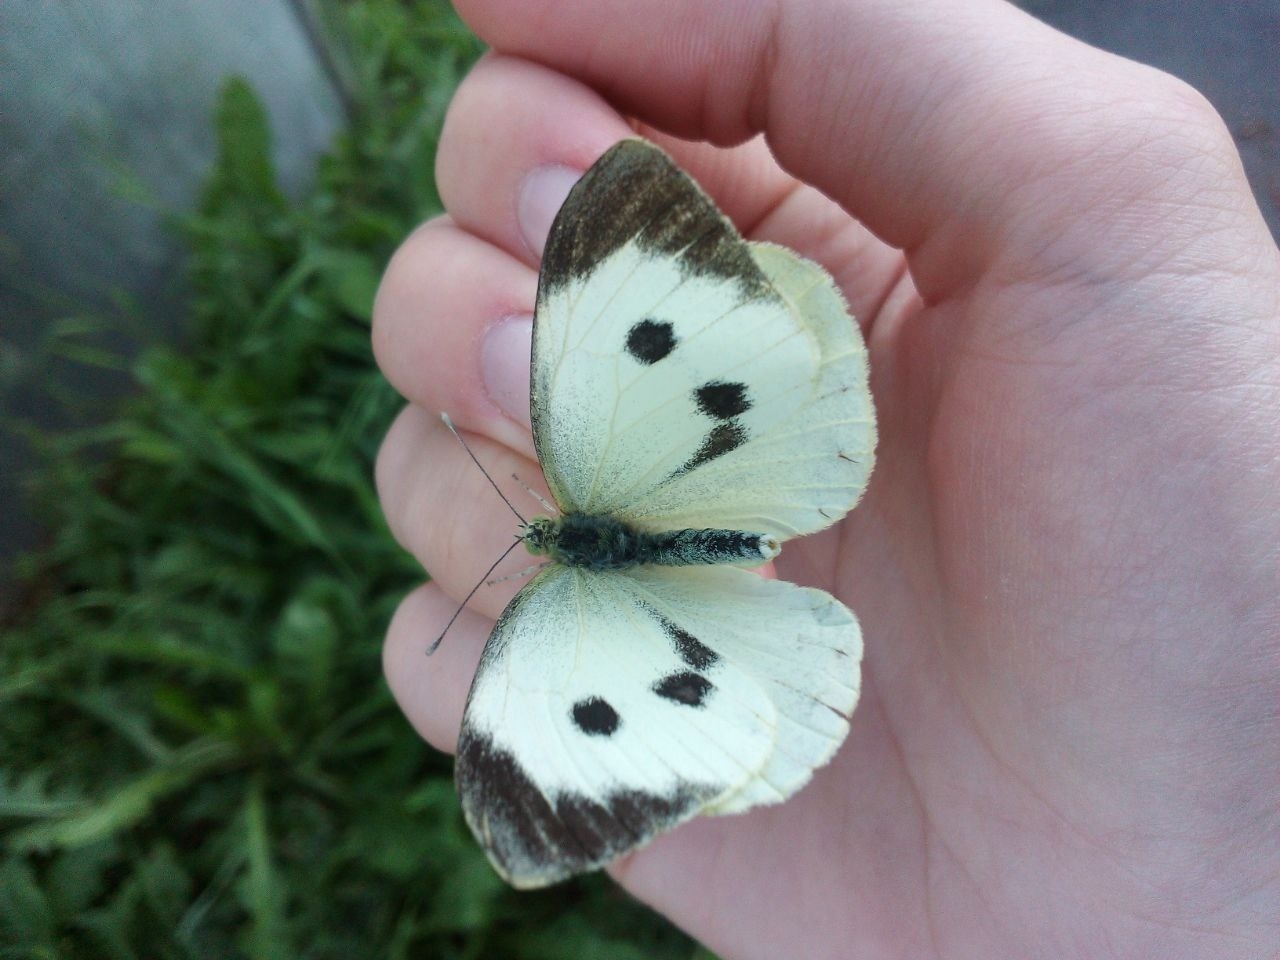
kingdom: Animalia
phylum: Arthropoda
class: Insecta
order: Lepidoptera
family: Pieridae
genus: Pieris
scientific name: Pieris brassicae
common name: Large white
